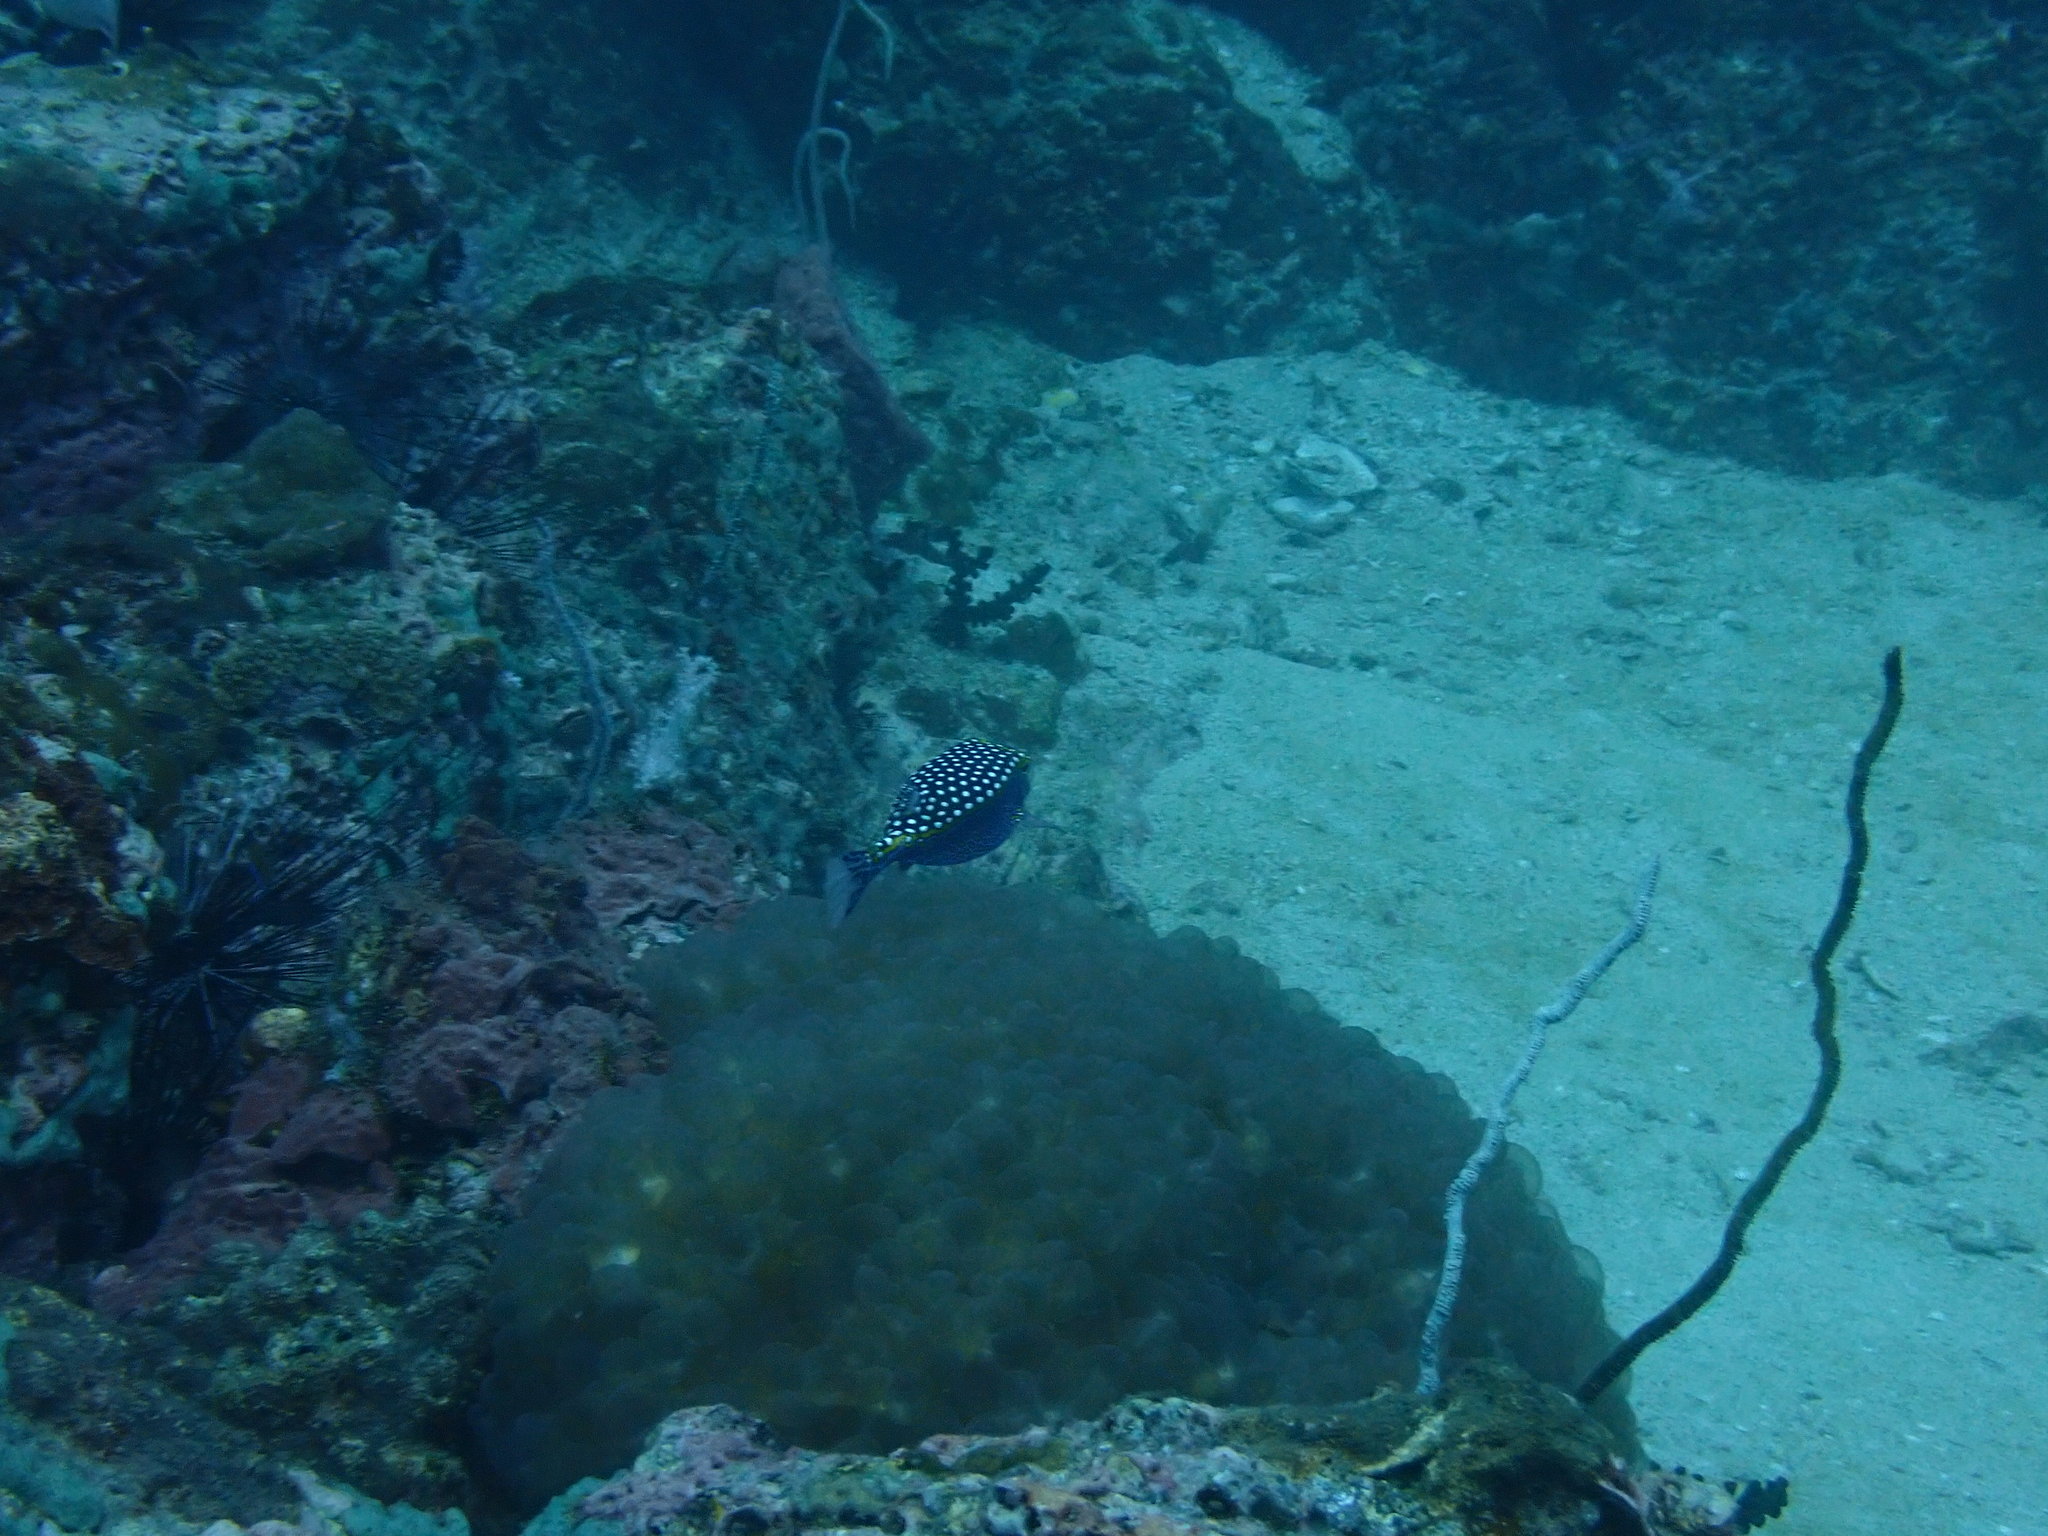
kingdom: Animalia
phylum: Chordata
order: Tetraodontiformes
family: Ostraciidae
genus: Ostracion
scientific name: Ostracion meleagris
